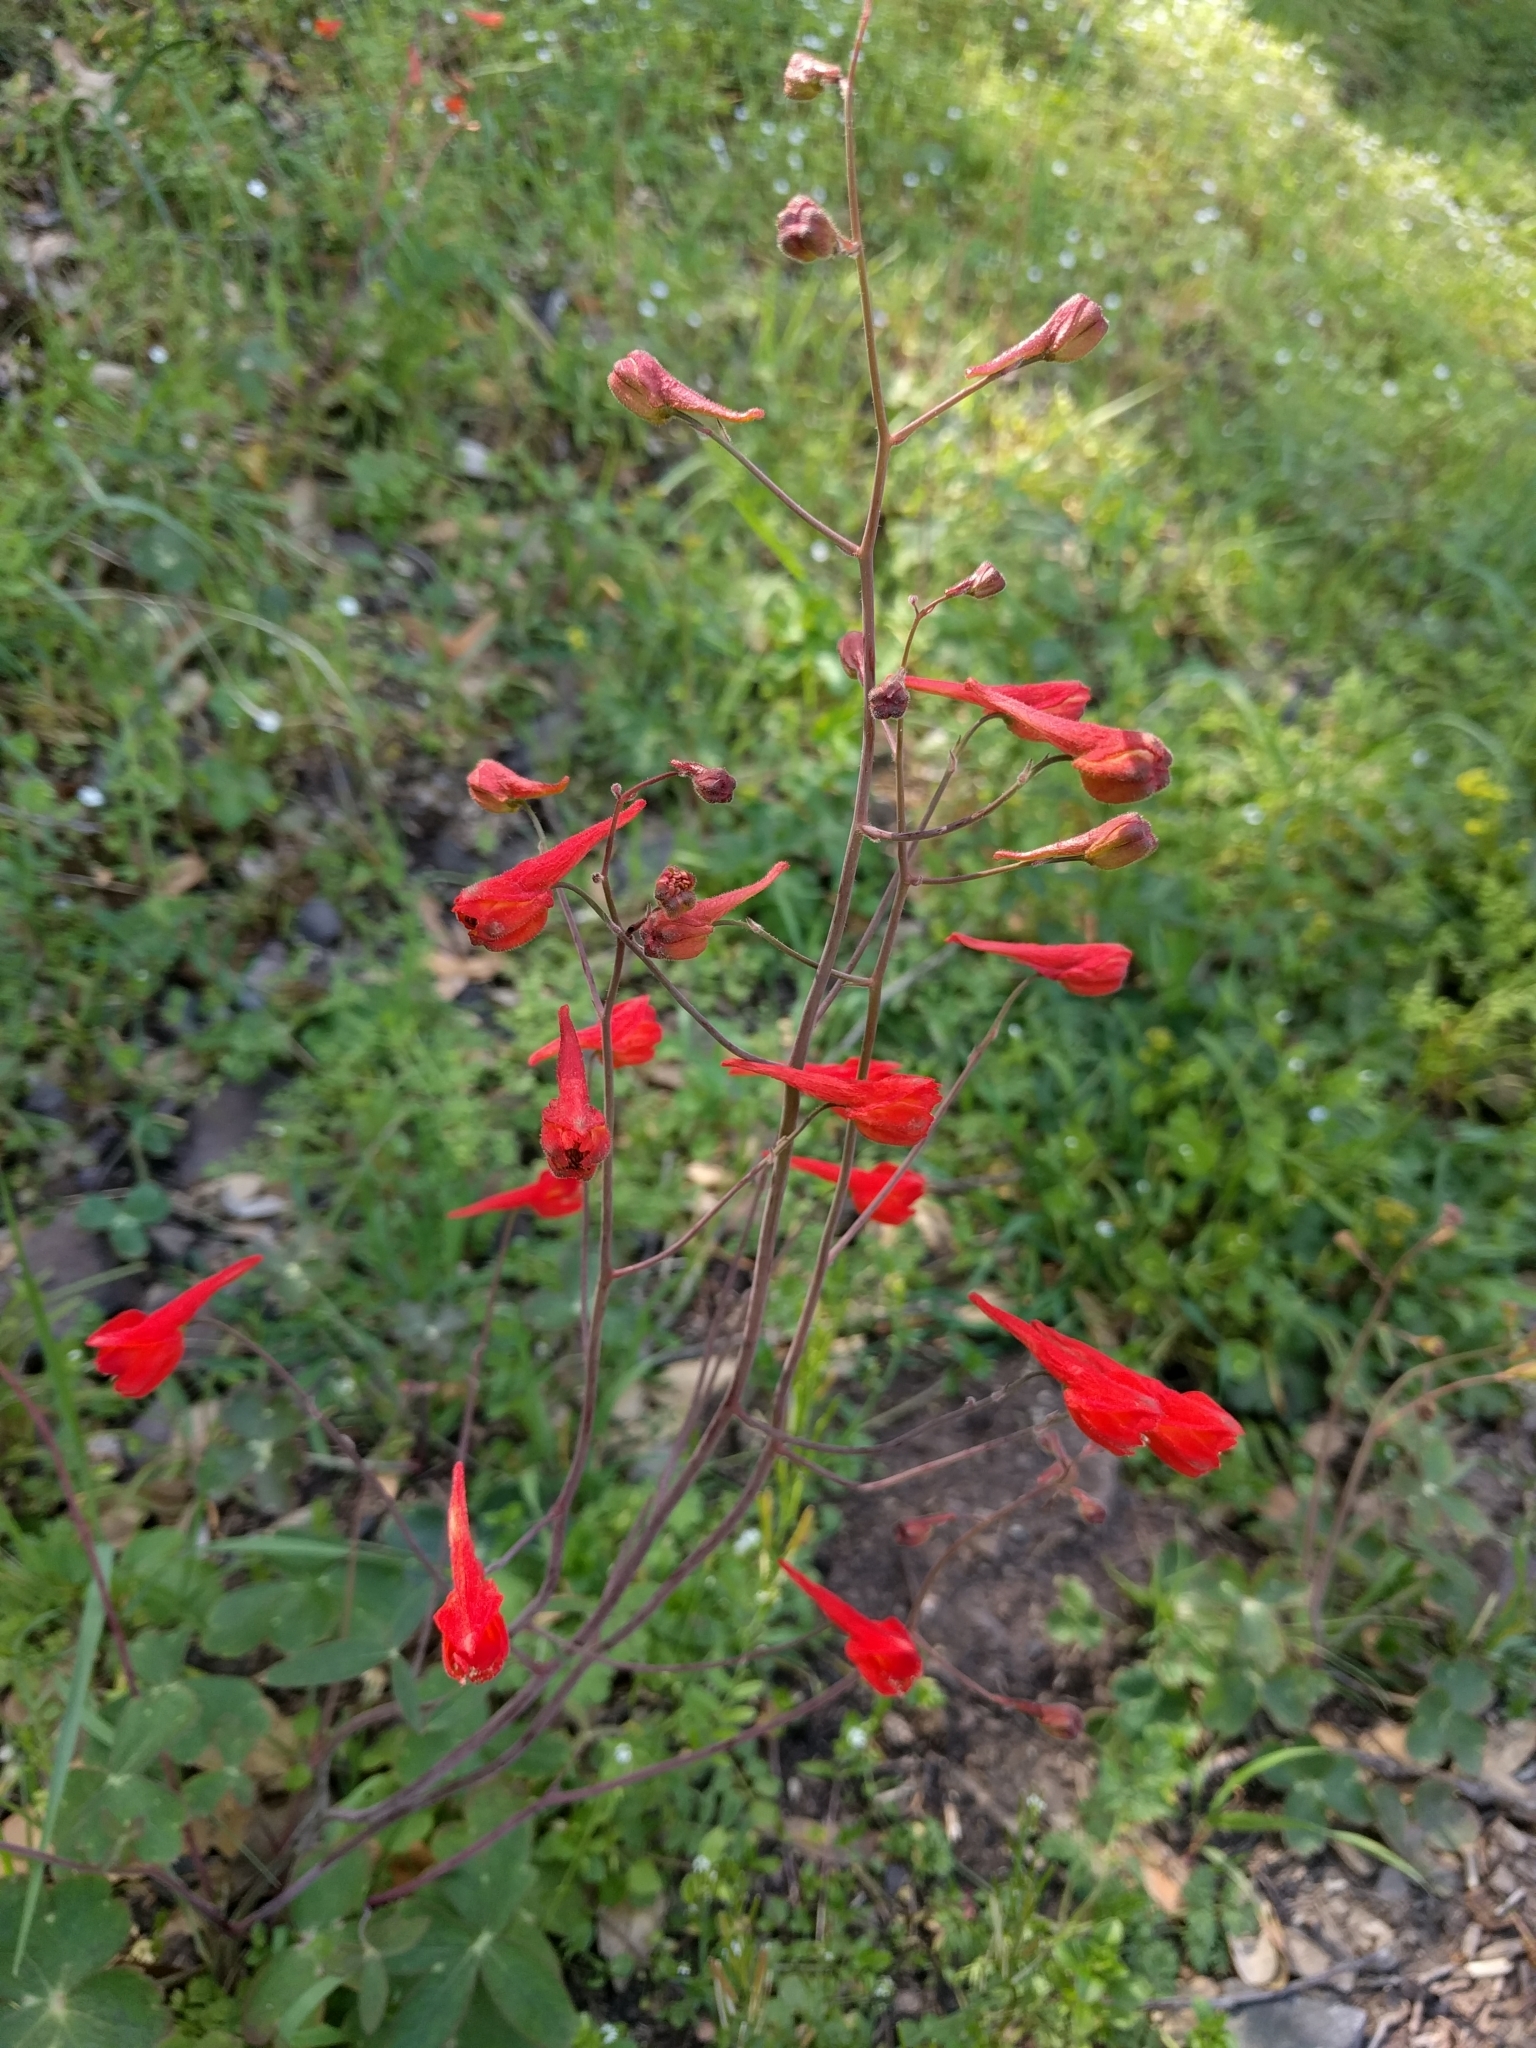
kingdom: Plantae
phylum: Tracheophyta
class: Magnoliopsida
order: Ranunculales
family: Ranunculaceae
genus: Delphinium
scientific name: Delphinium nudicaule
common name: Red larkspur
